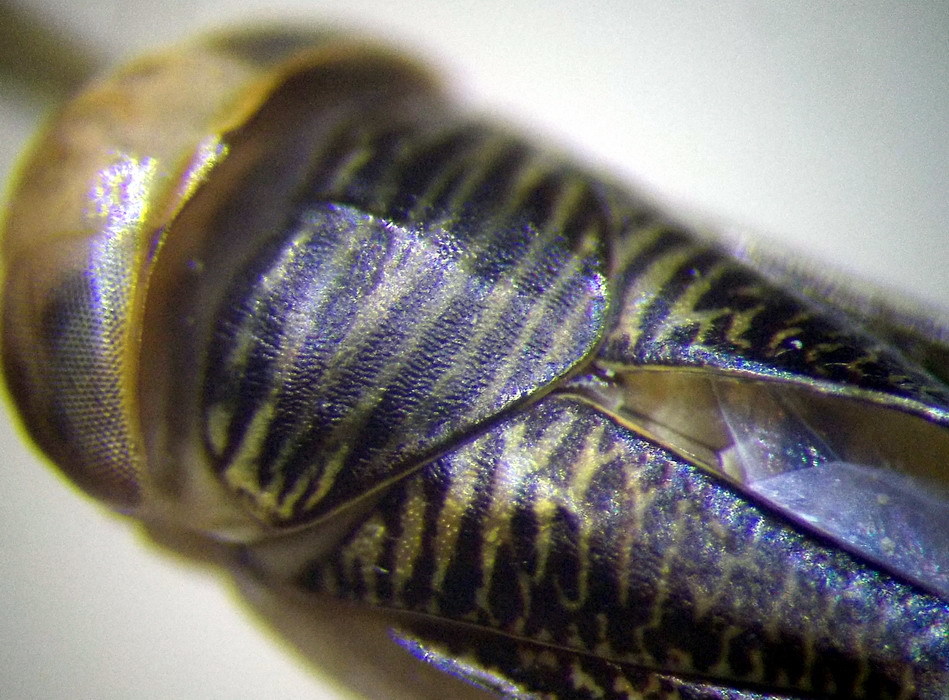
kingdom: Animalia
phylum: Arthropoda
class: Insecta
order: Hemiptera
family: Corixidae
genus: Sigara
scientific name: Sigara striata
